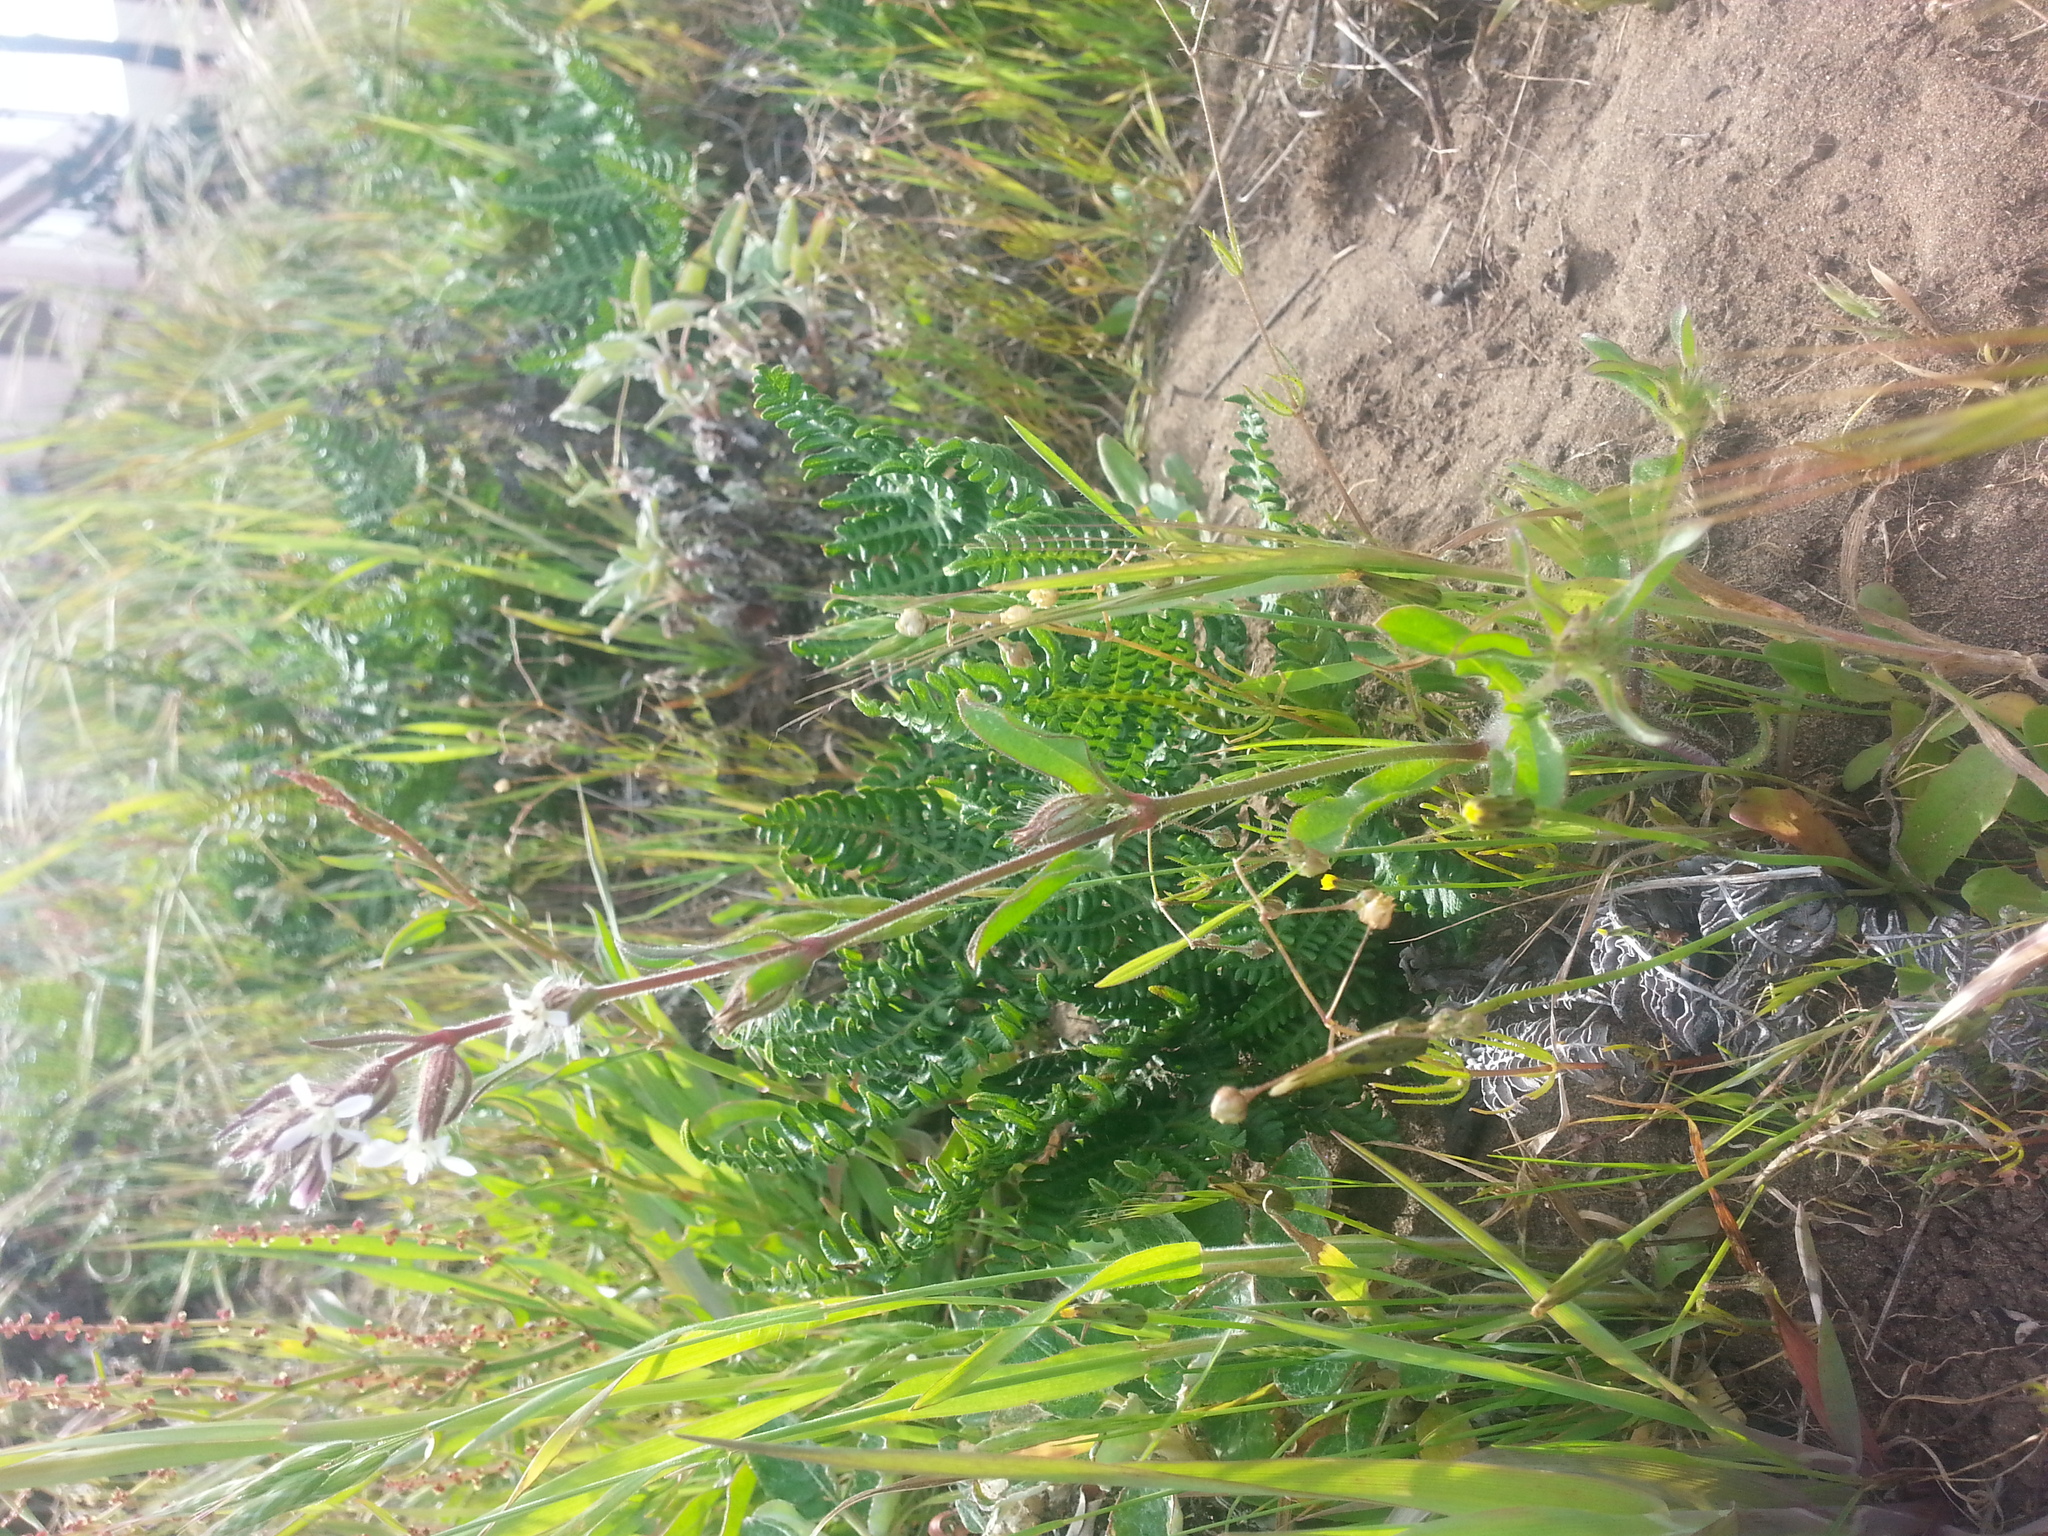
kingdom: Plantae
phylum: Tracheophyta
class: Magnoliopsida
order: Caryophyllales
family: Caryophyllaceae
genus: Silene
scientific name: Silene gallica
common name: Small-flowered catchfly
